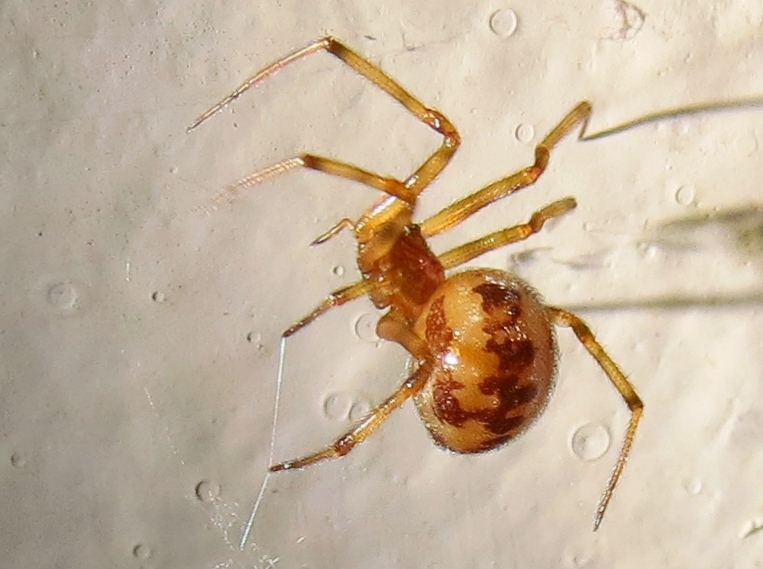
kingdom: Animalia
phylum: Arthropoda
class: Arachnida
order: Araneae
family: Theridiidae
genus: Steatoda
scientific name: Steatoda triangulosa
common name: Triangulate bud spider
